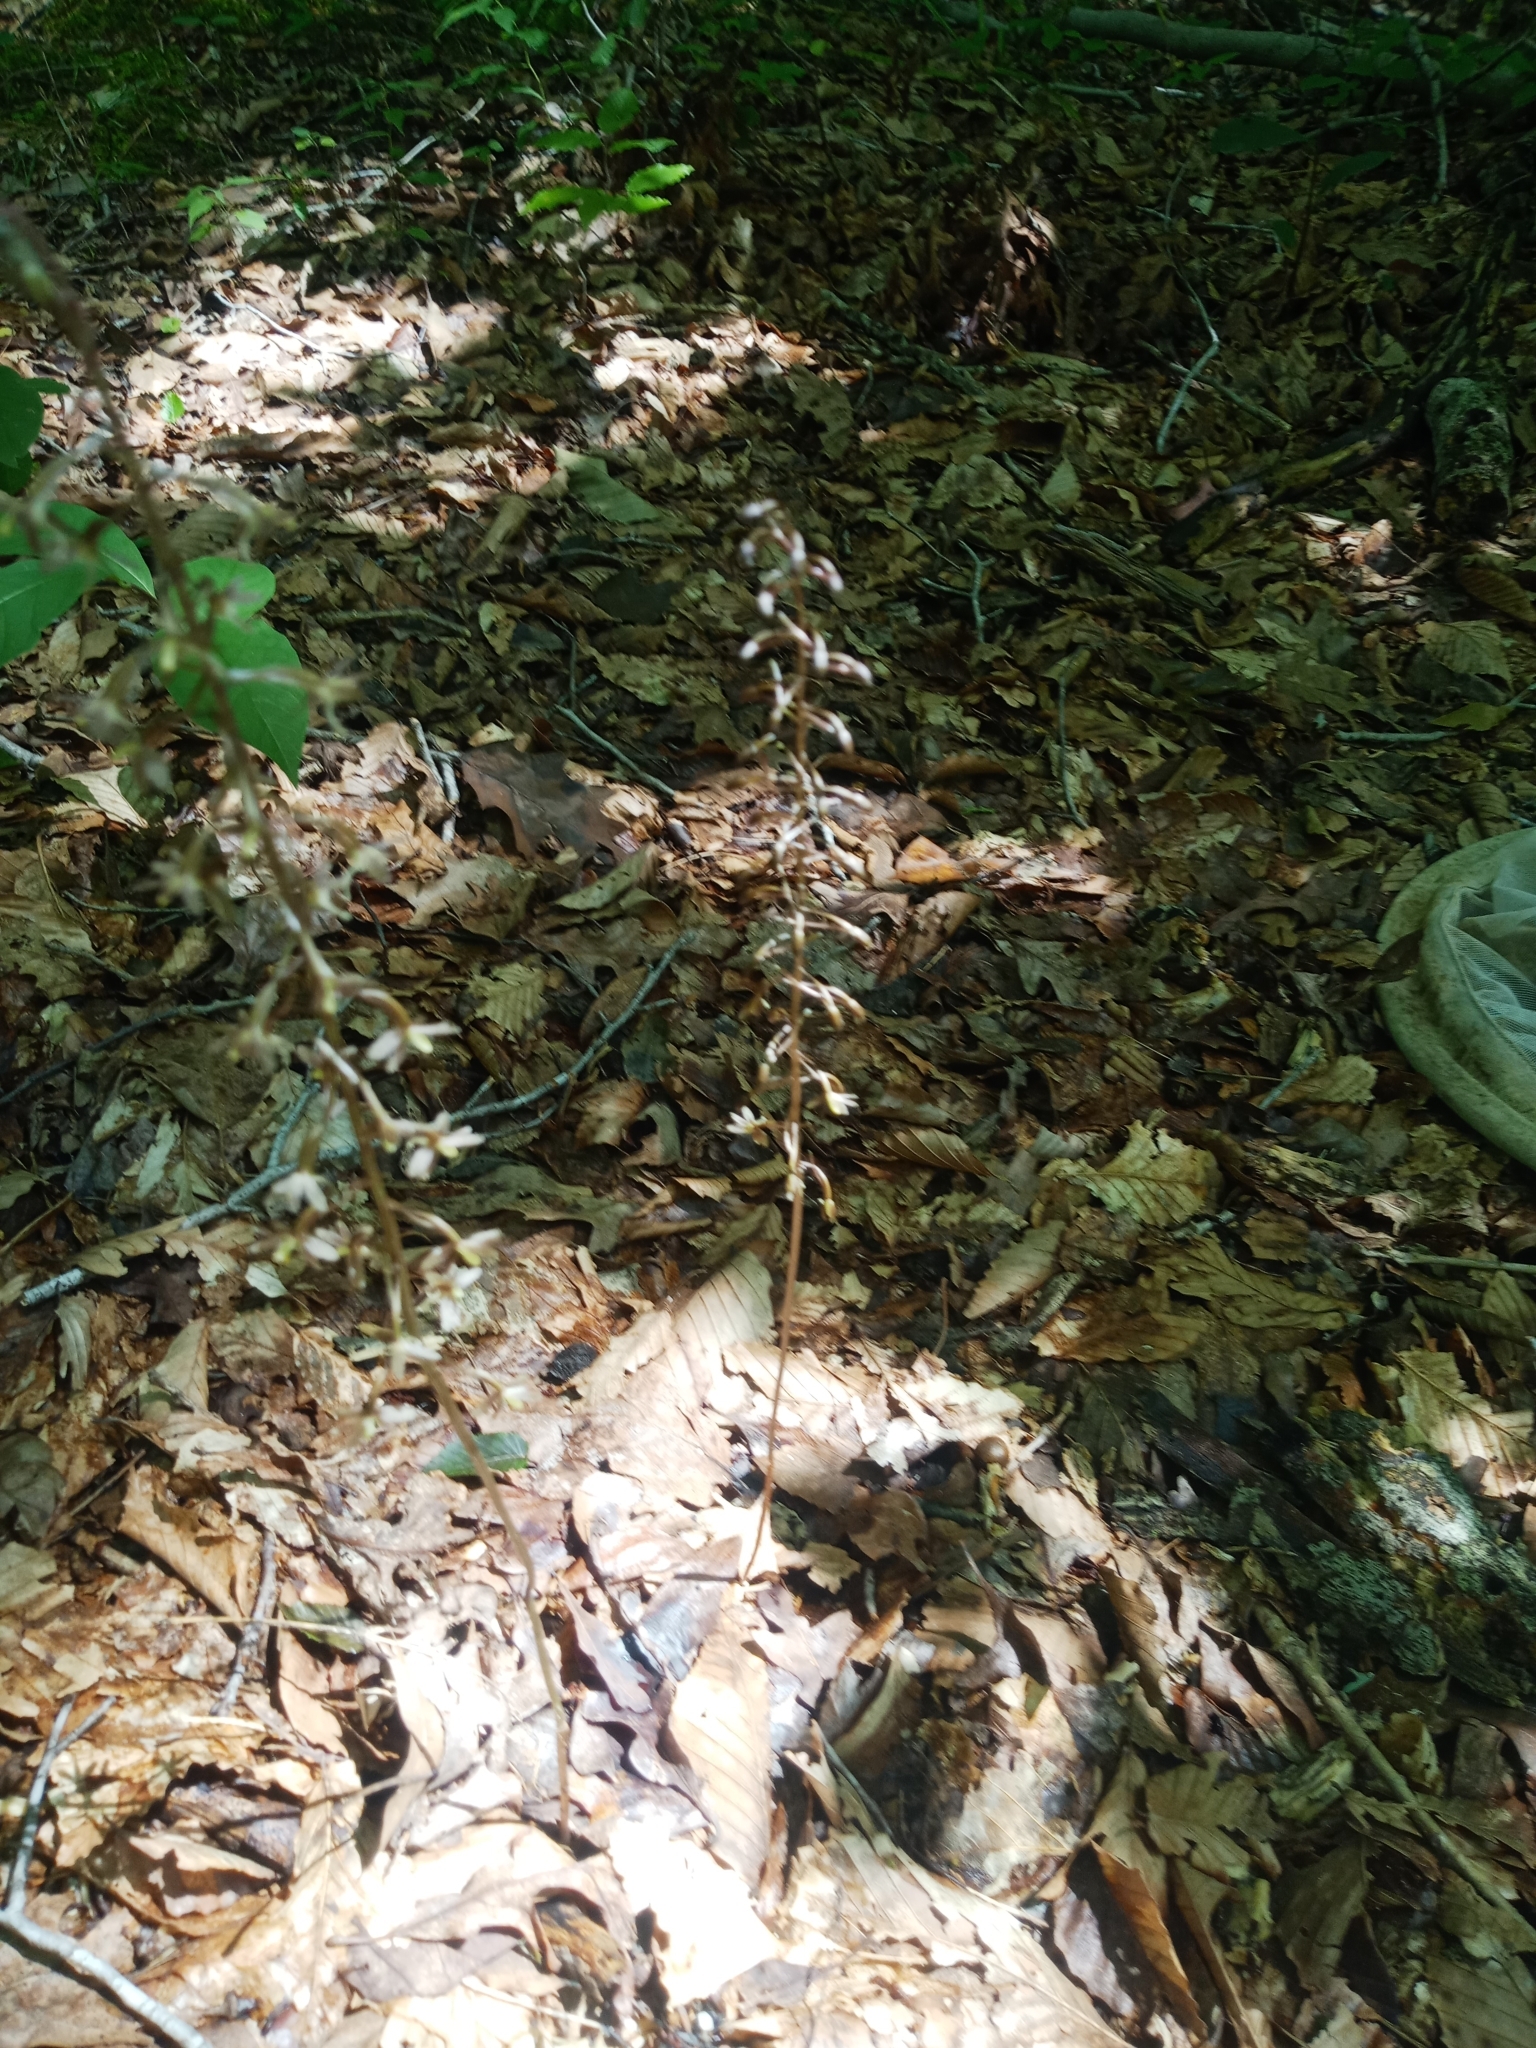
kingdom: Plantae
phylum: Tracheophyta
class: Liliopsida
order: Asparagales
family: Orchidaceae
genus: Tipularia
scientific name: Tipularia discolor
